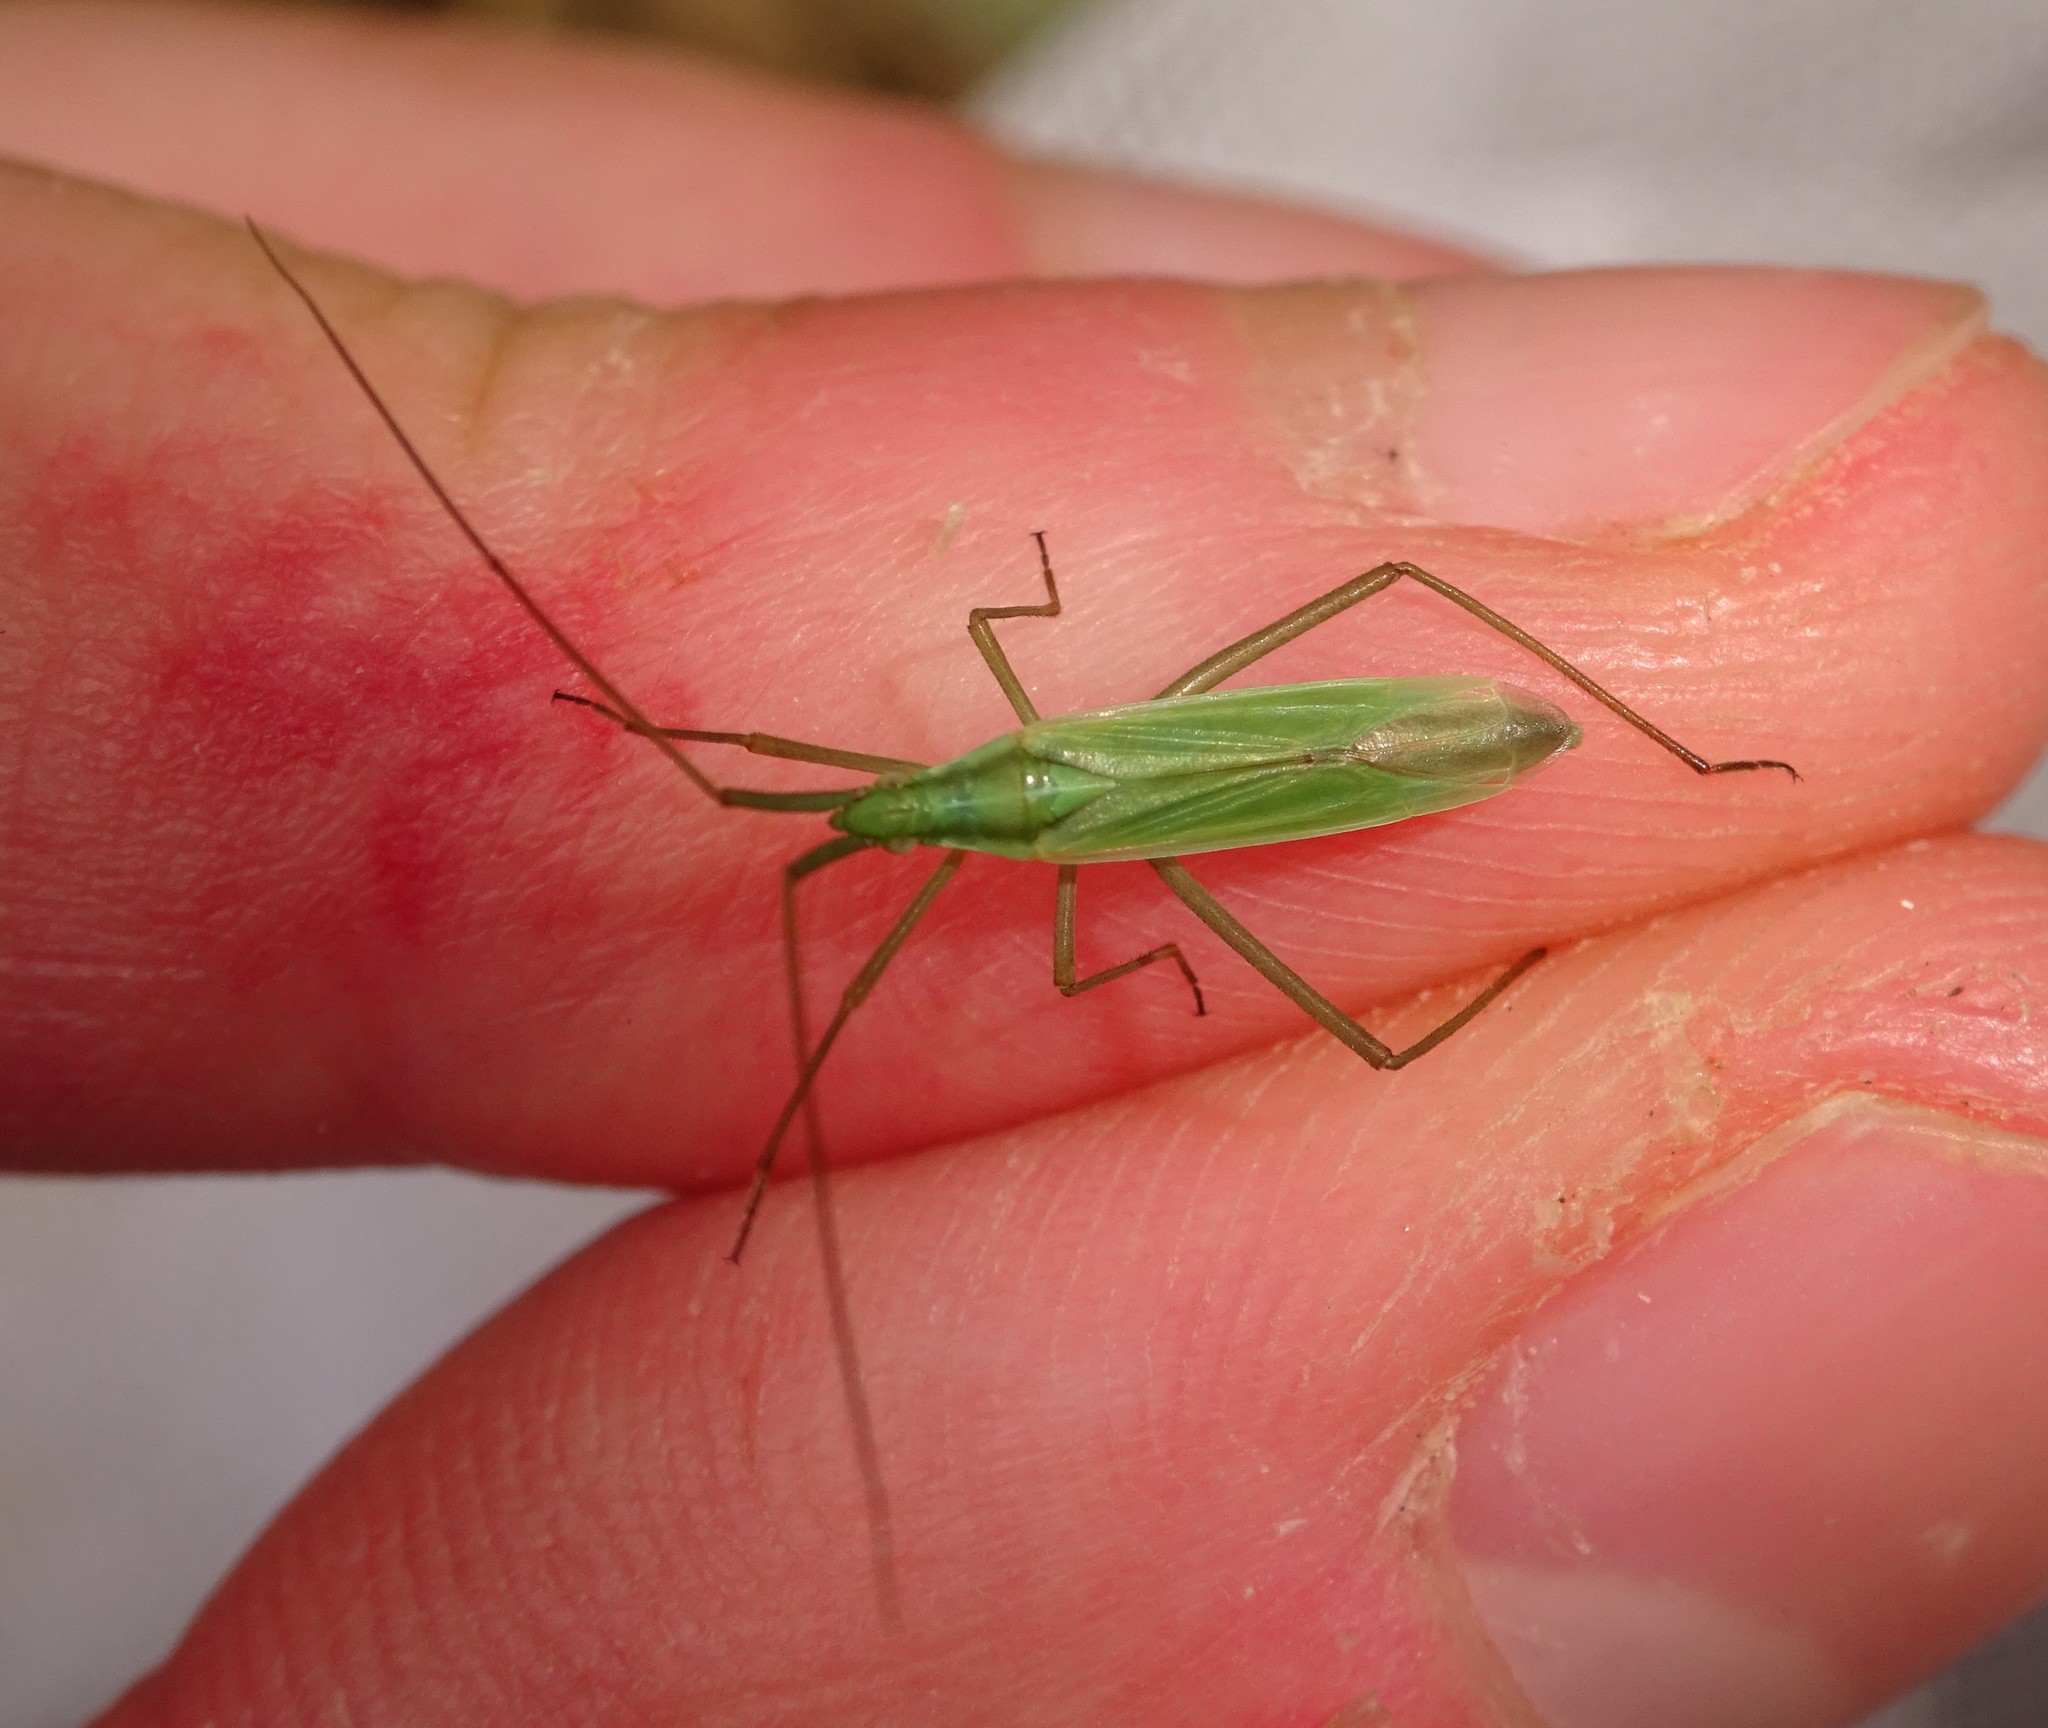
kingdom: Animalia
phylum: Arthropoda
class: Insecta
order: Hemiptera
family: Miridae
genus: Megaloceroea
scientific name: Megaloceroea recticornis
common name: Plant bug
